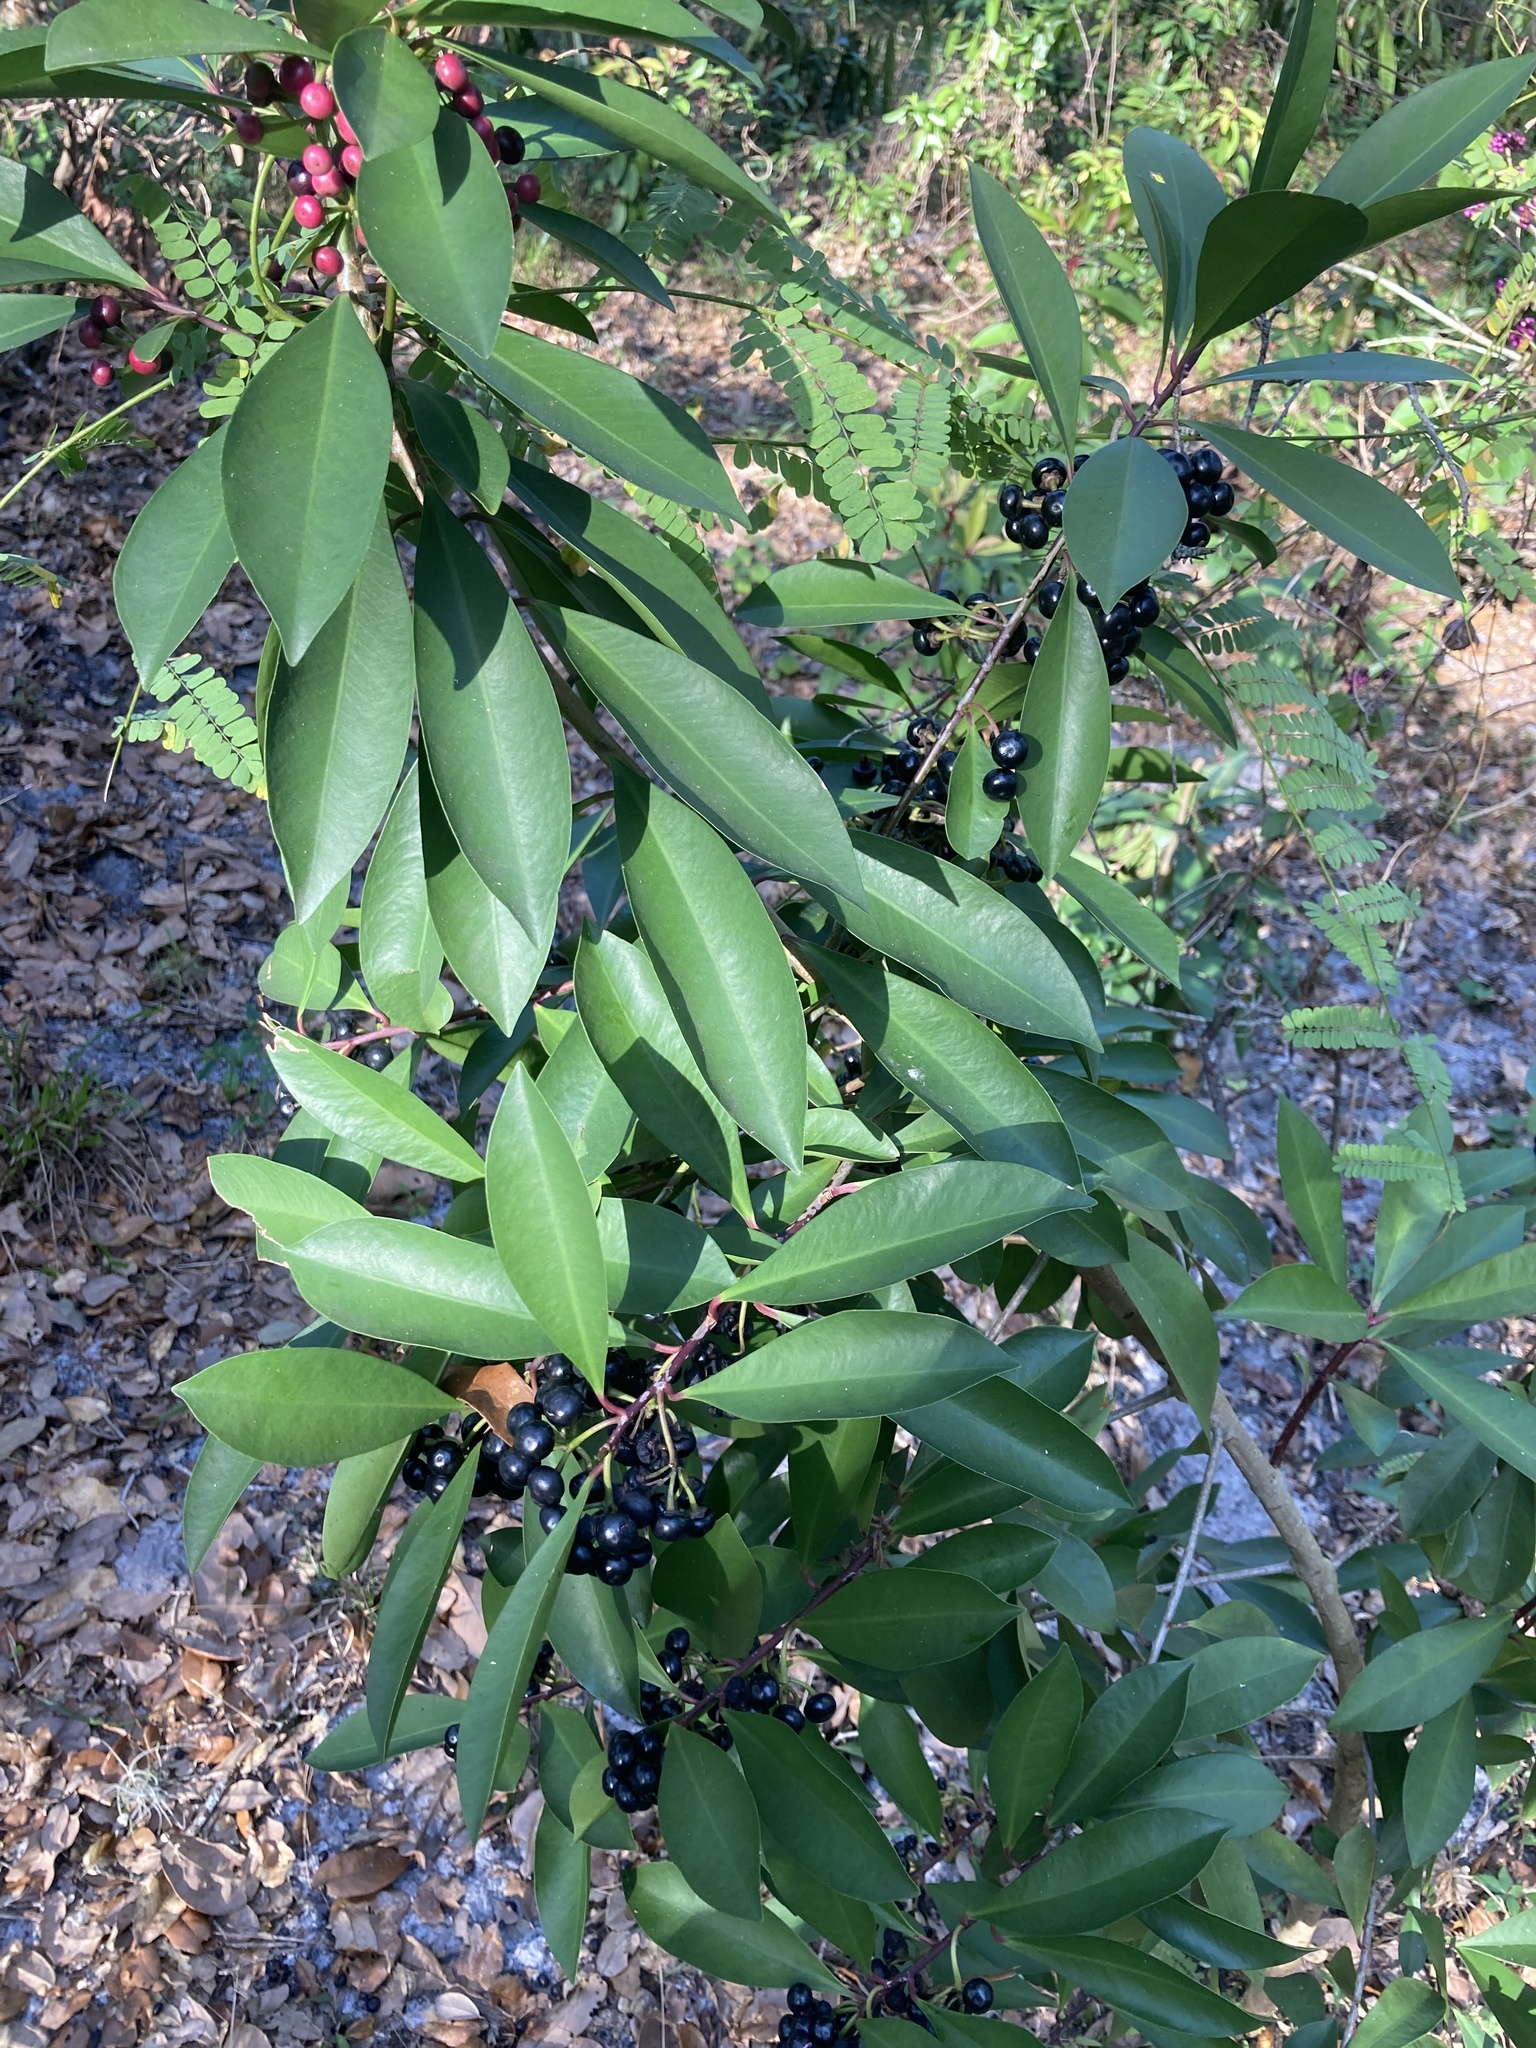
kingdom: Plantae
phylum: Tracheophyta
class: Magnoliopsida
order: Ericales
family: Primulaceae
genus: Ardisia
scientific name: Ardisia elliptica
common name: Shoebutton
